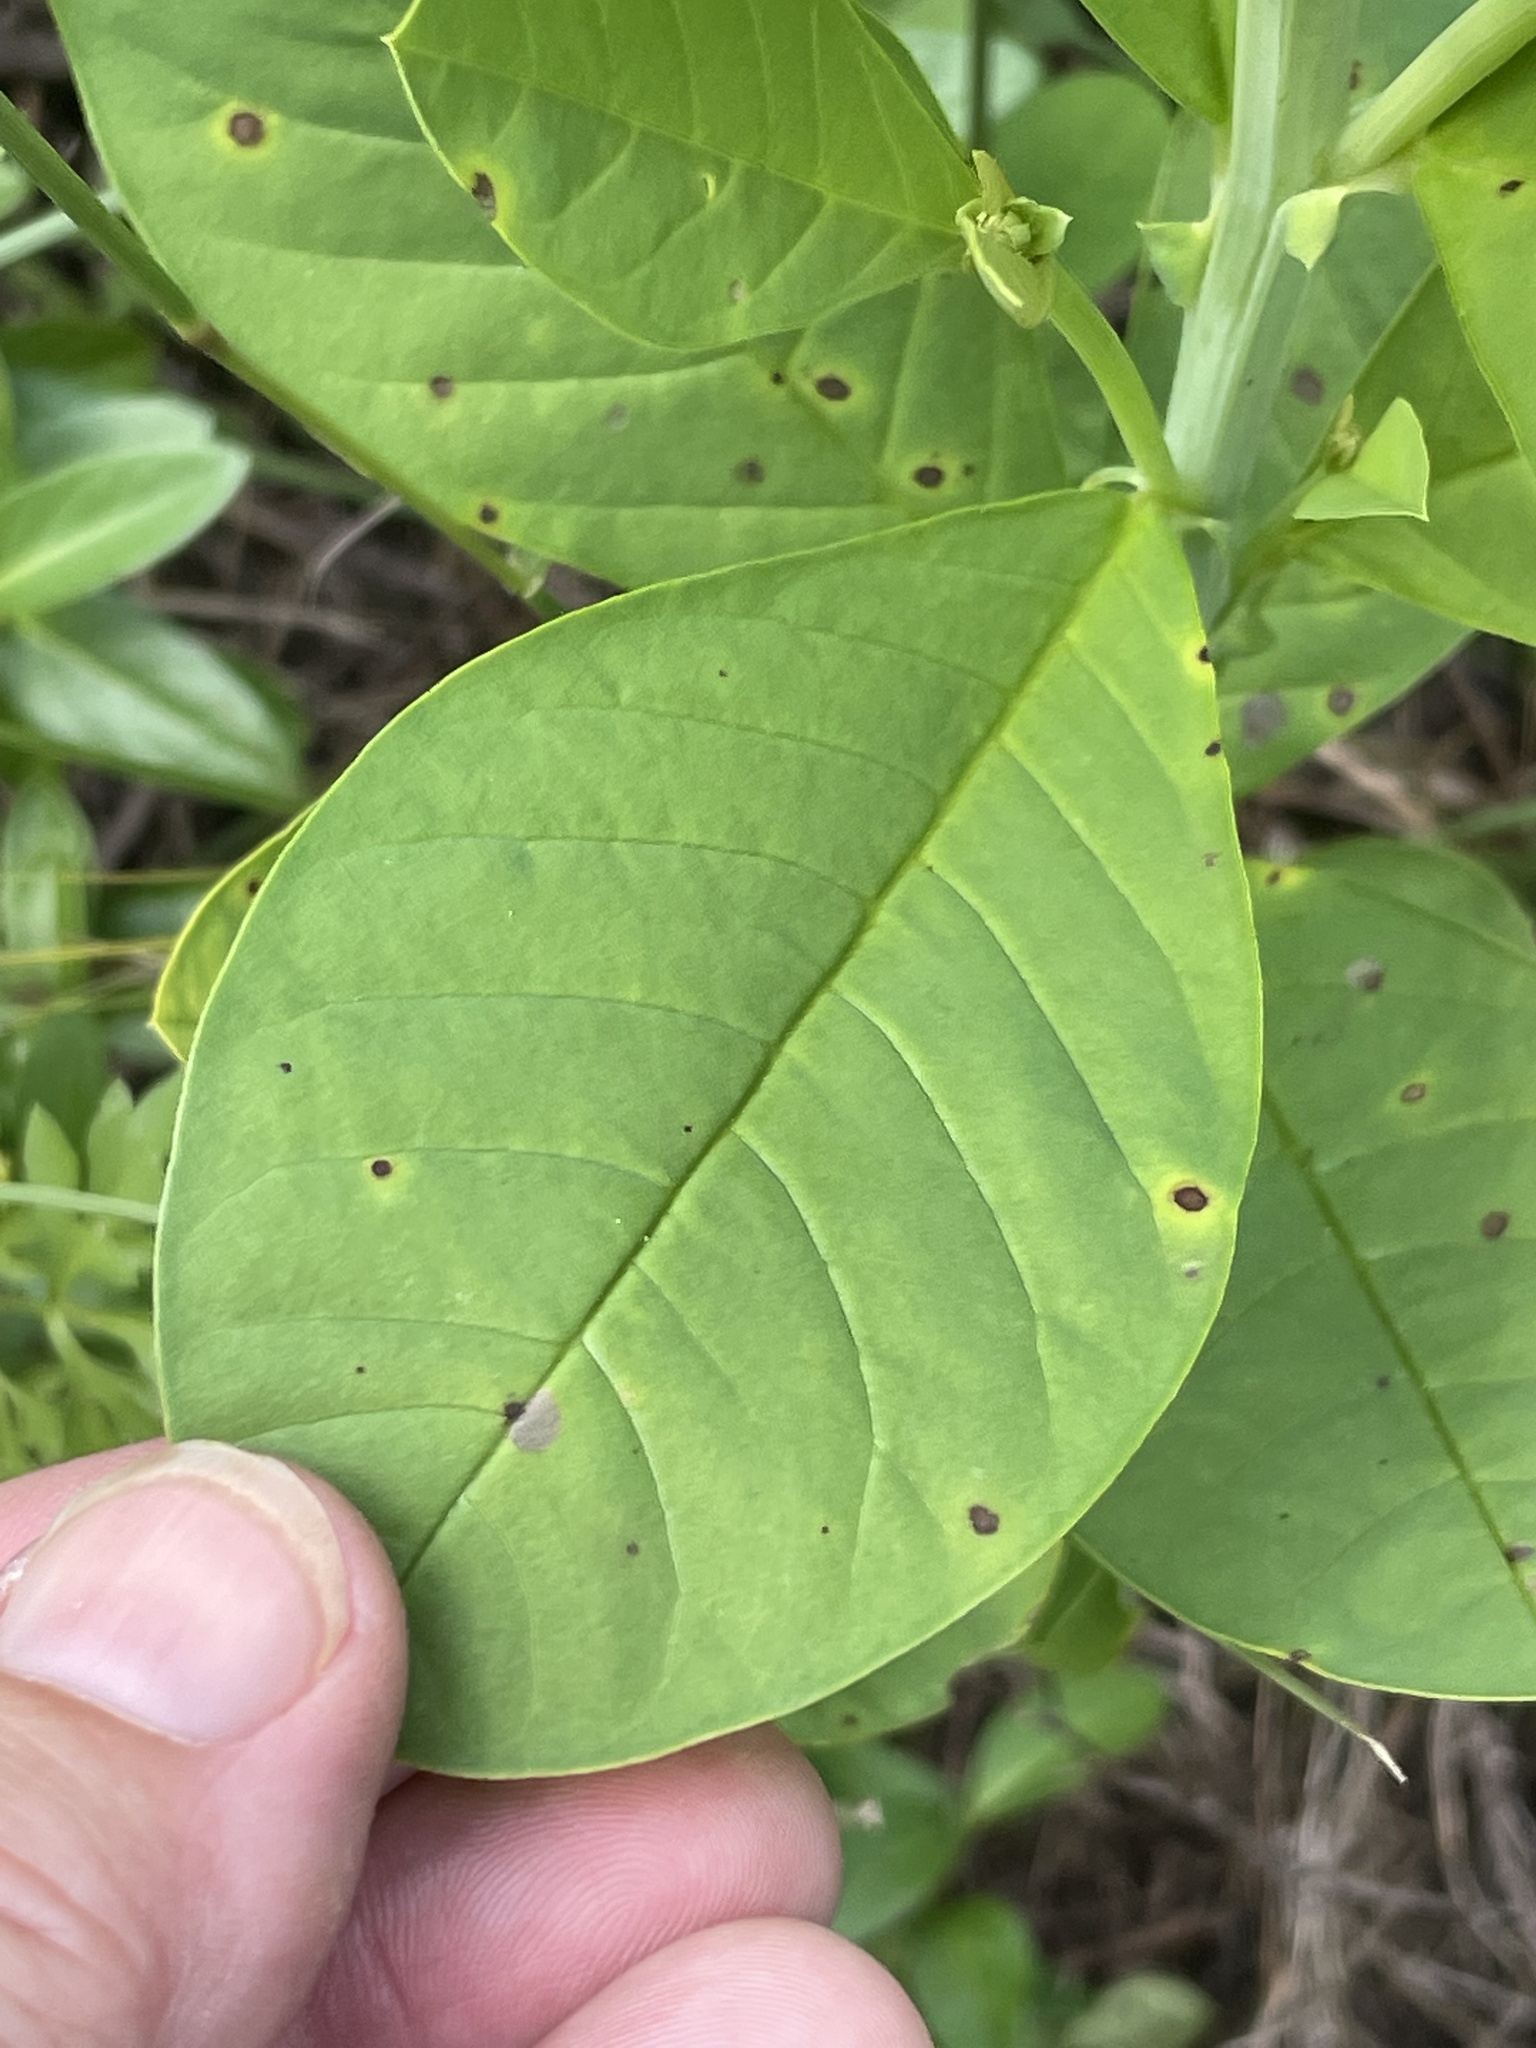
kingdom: Plantae
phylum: Tracheophyta
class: Magnoliopsida
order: Fabales
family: Fabaceae
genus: Crotalaria
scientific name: Crotalaria spectabilis
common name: Showy rattlebox
